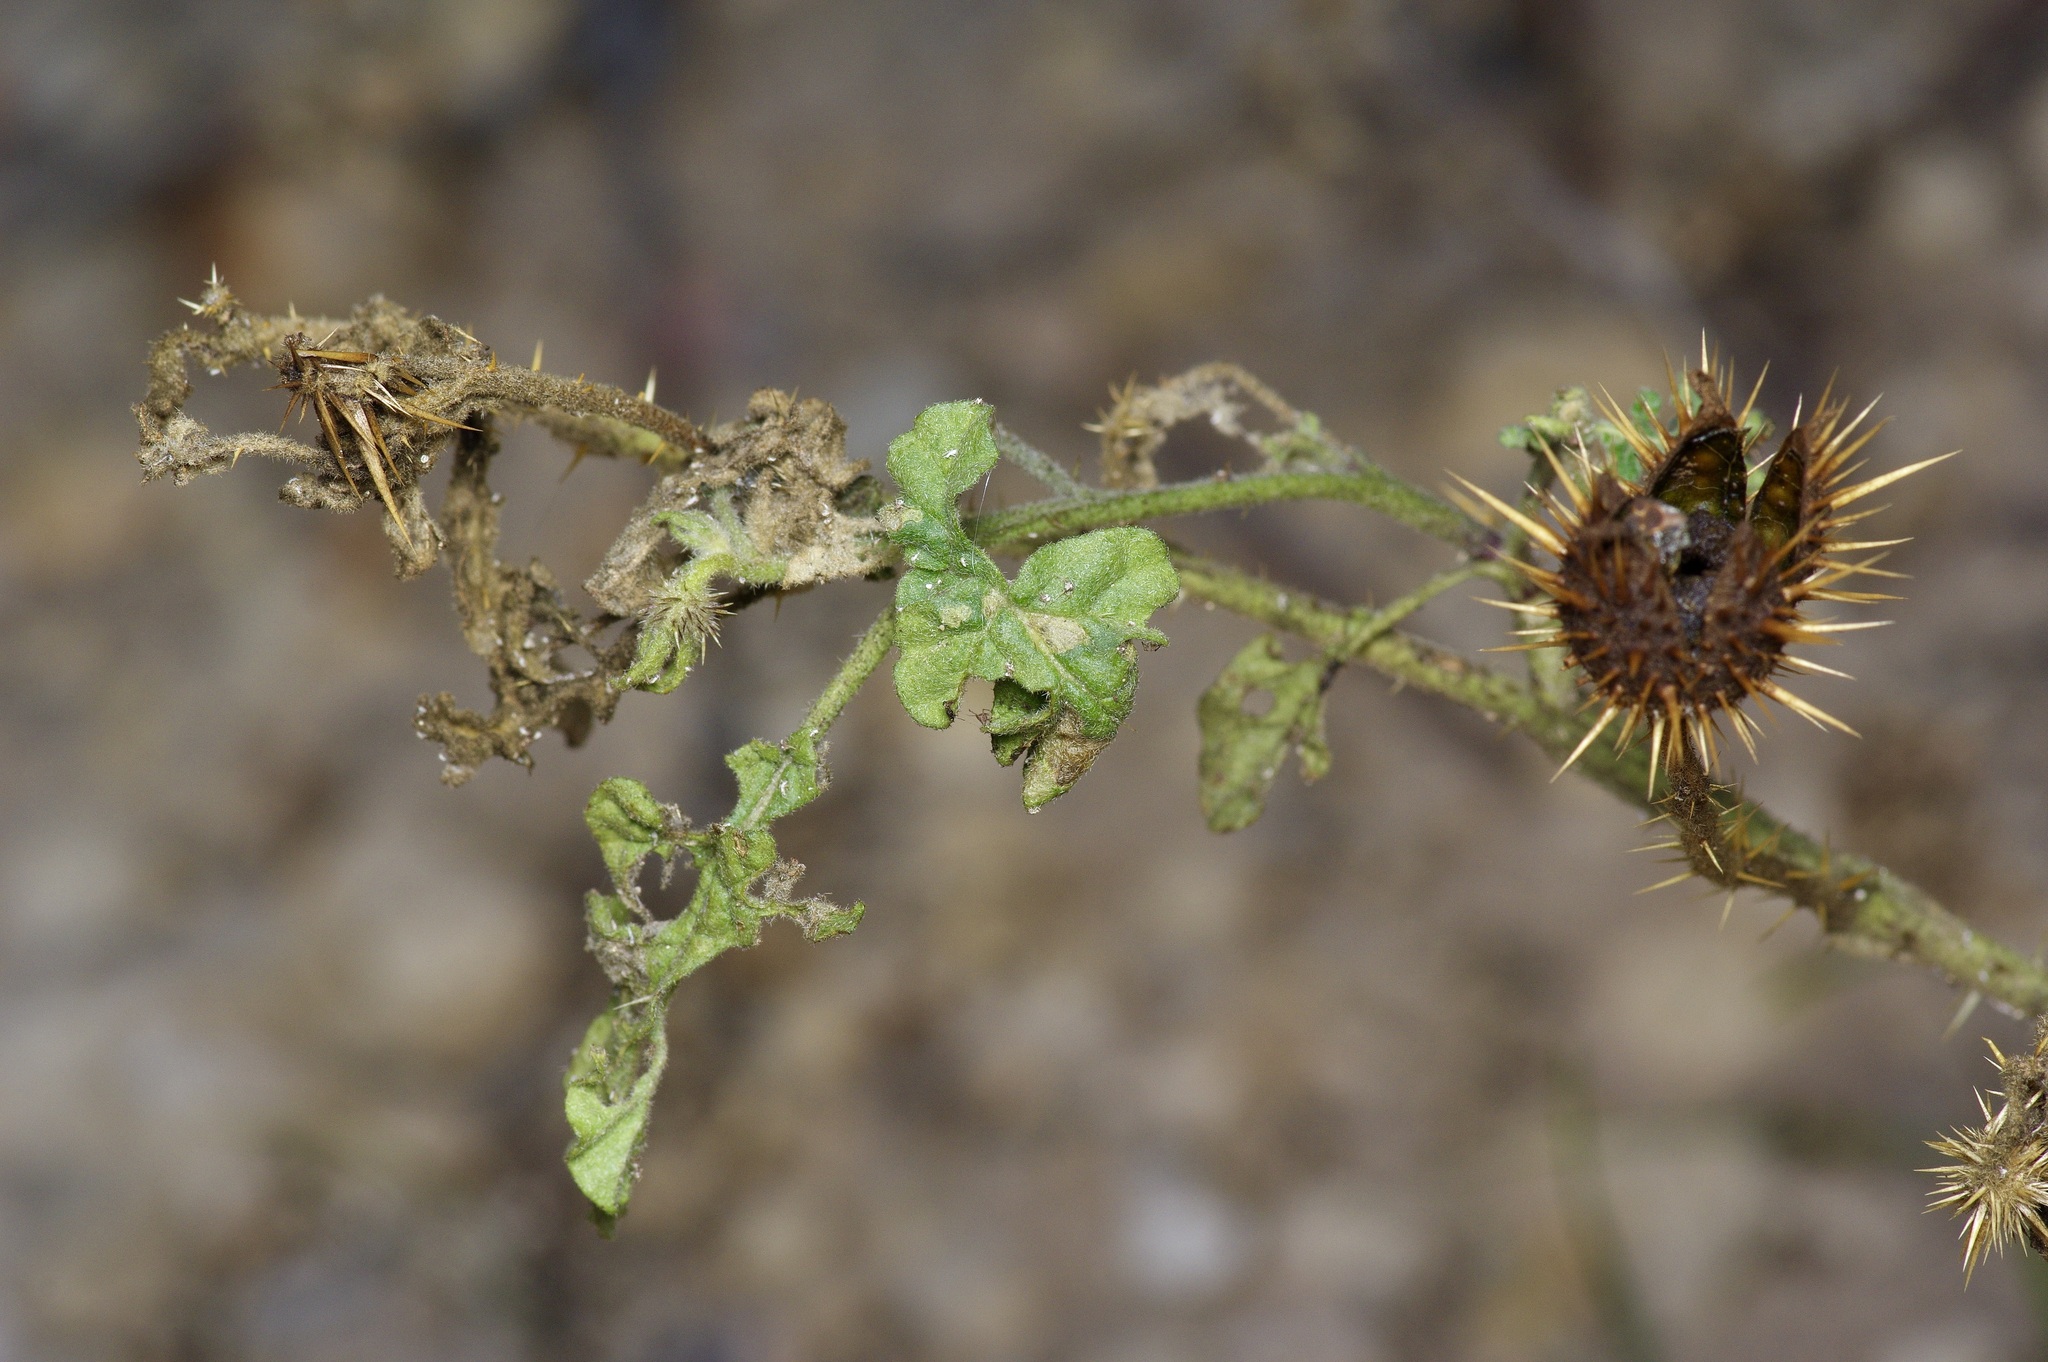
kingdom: Plantae
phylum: Tracheophyta
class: Magnoliopsida
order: Solanales
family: Solanaceae
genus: Solanum
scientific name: Solanum angustifolium
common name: Buffalobur nightshade
